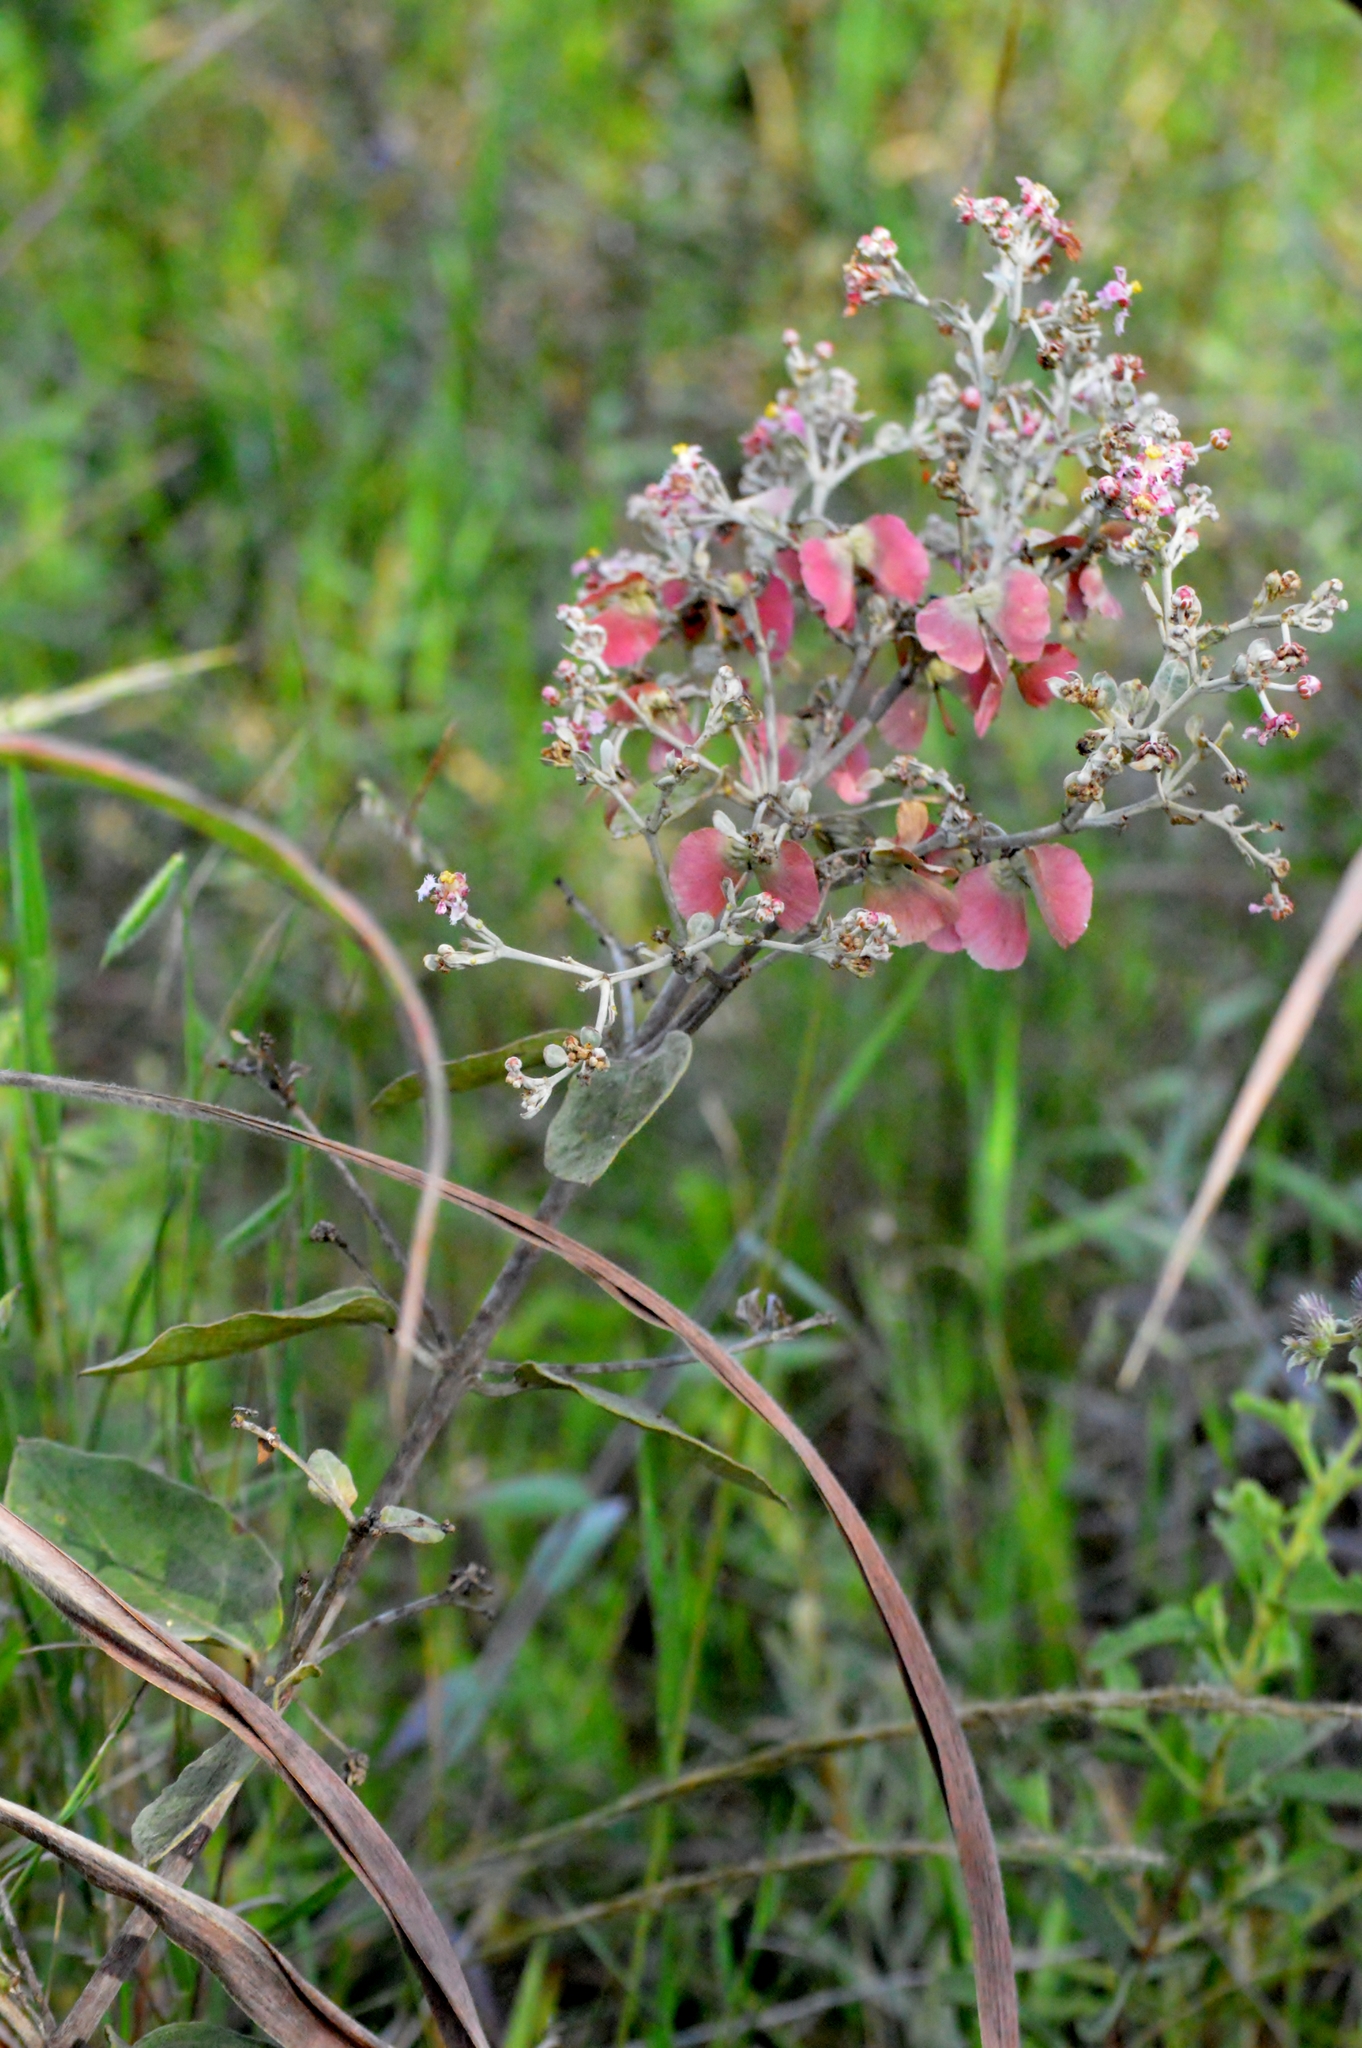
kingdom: Plantae
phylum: Tracheophyta
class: Magnoliopsida
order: Malpighiales
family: Malpighiaceae
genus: Banisteriopsis
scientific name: Banisteriopsis campestris
